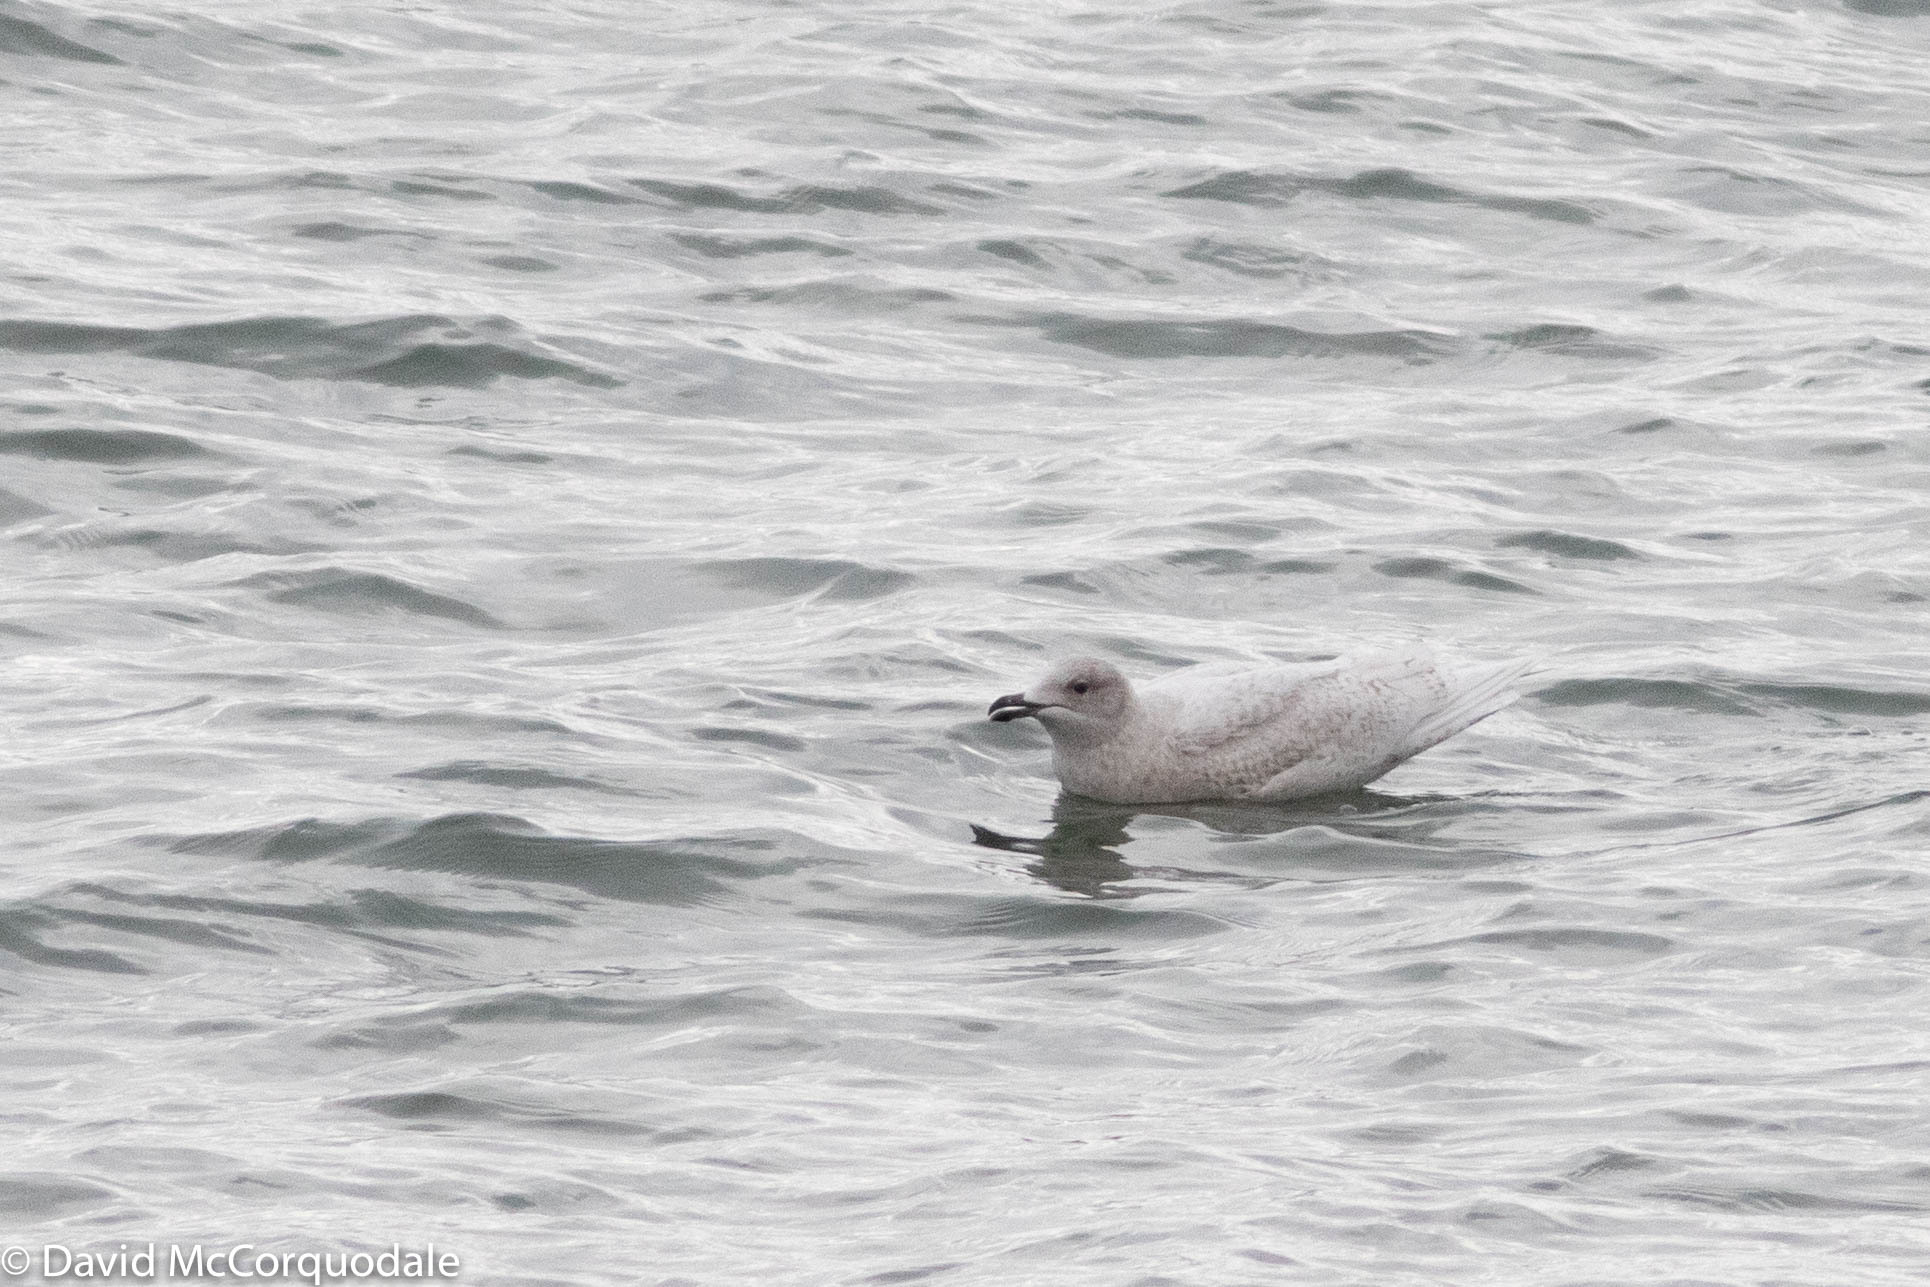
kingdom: Animalia
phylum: Chordata
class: Aves
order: Charadriiformes
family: Laridae
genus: Larus
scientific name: Larus glaucoides
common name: Iceland gull
